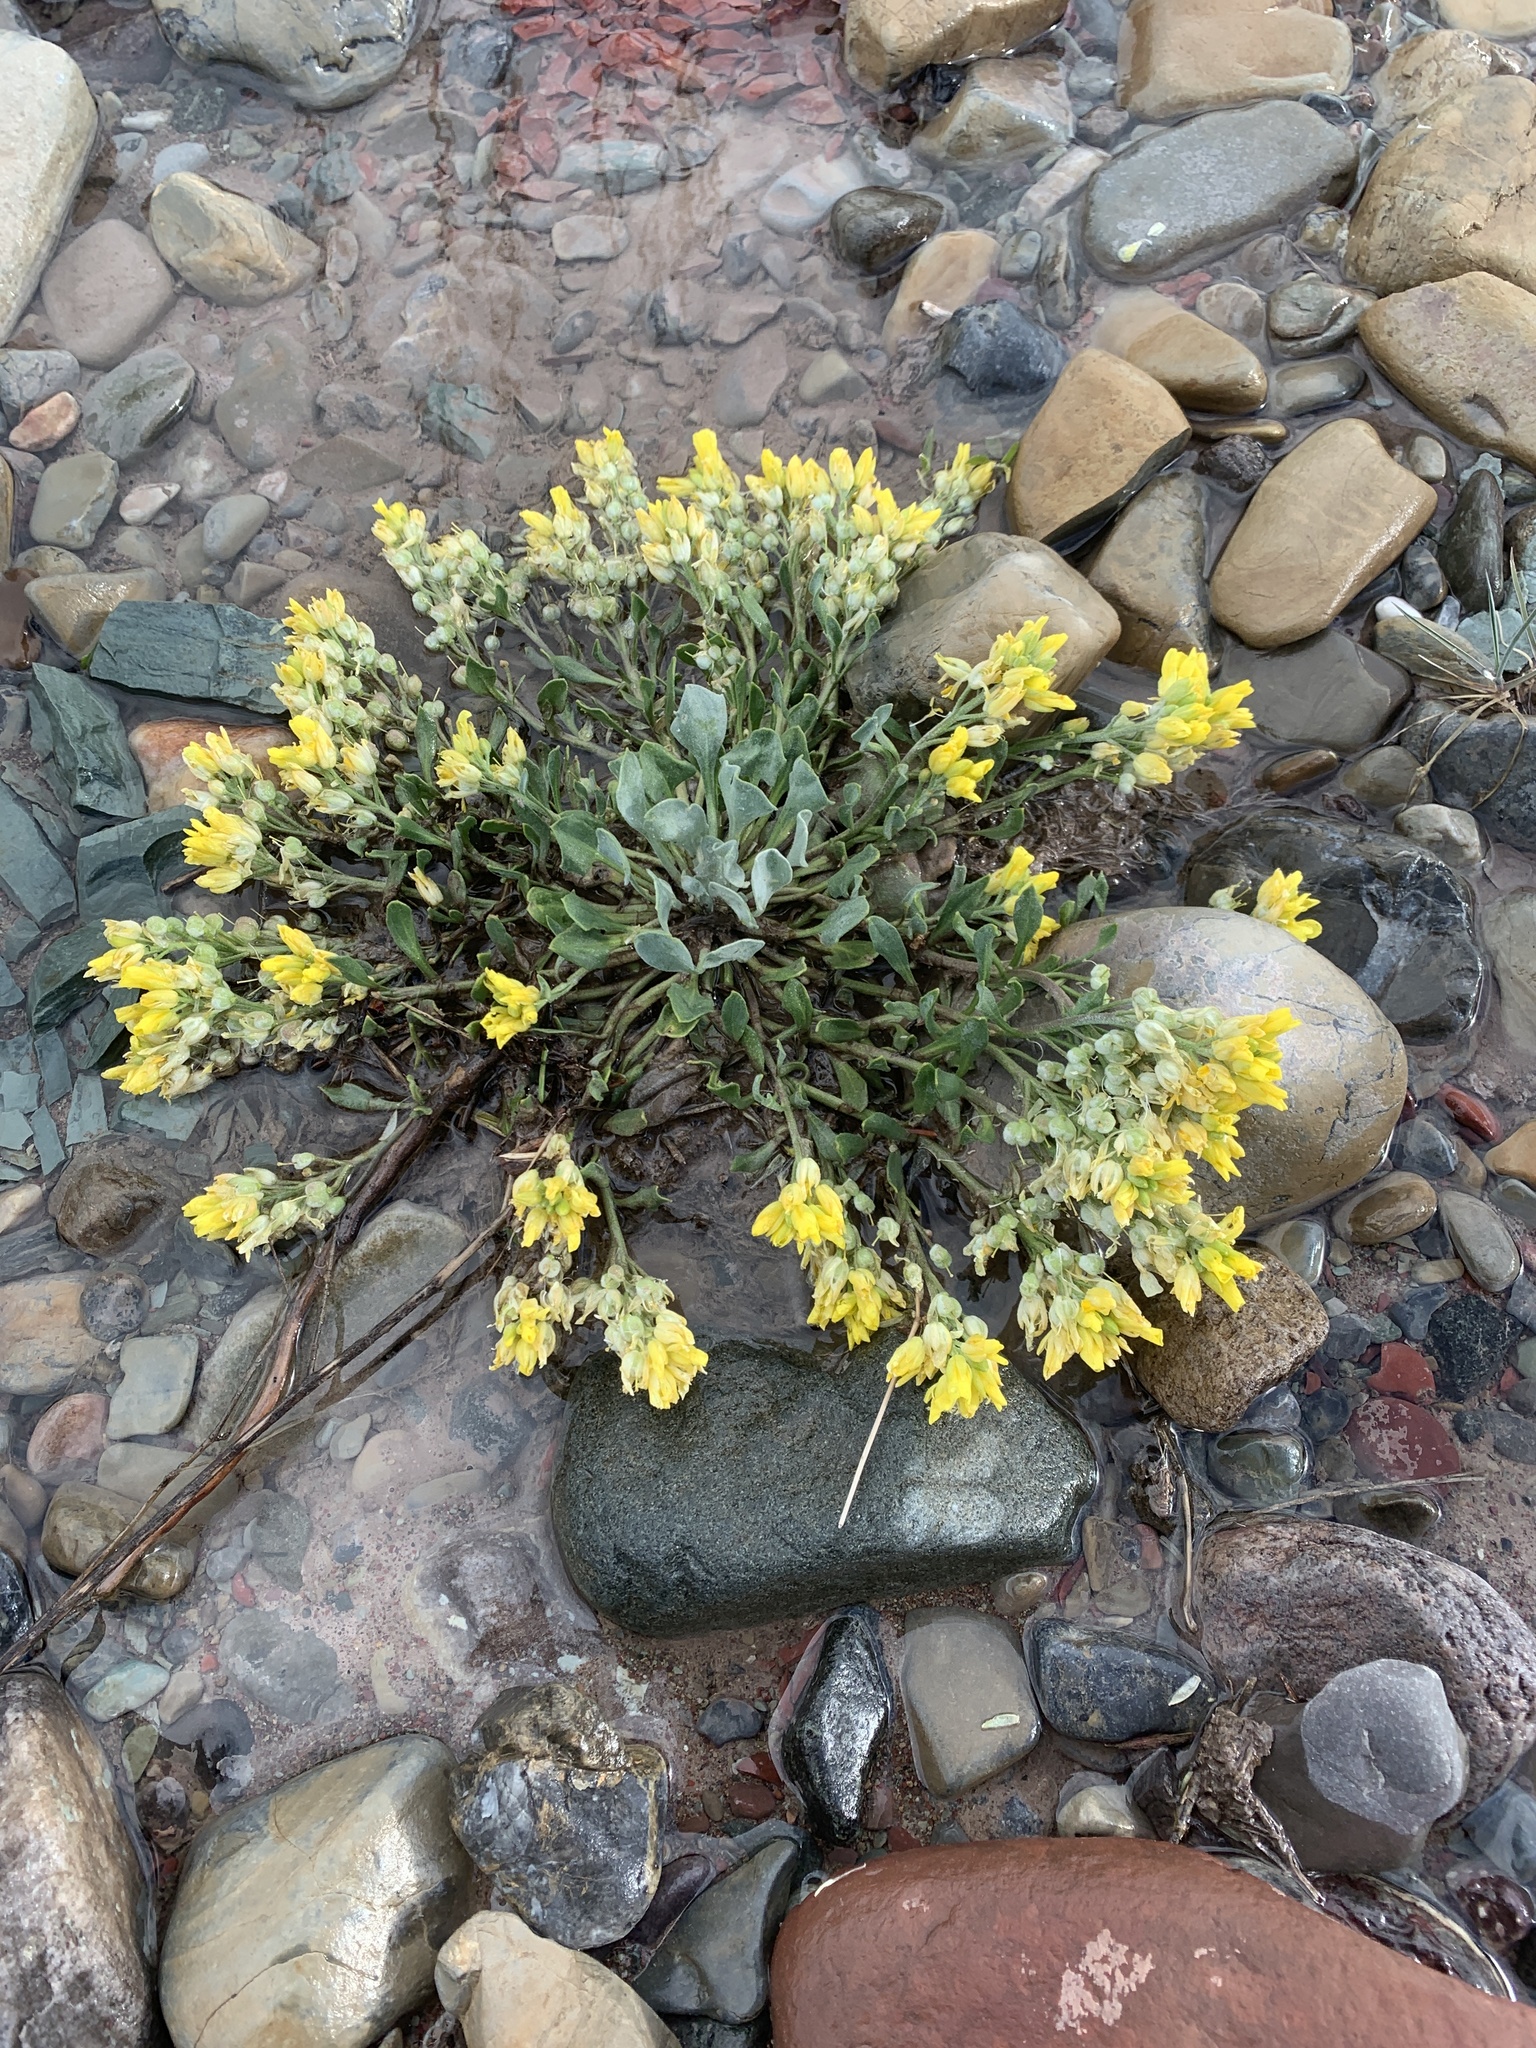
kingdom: Plantae
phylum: Tracheophyta
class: Magnoliopsida
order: Brassicales
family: Brassicaceae
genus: Physaria
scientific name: Physaria didymocarpa
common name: Common twinpod
